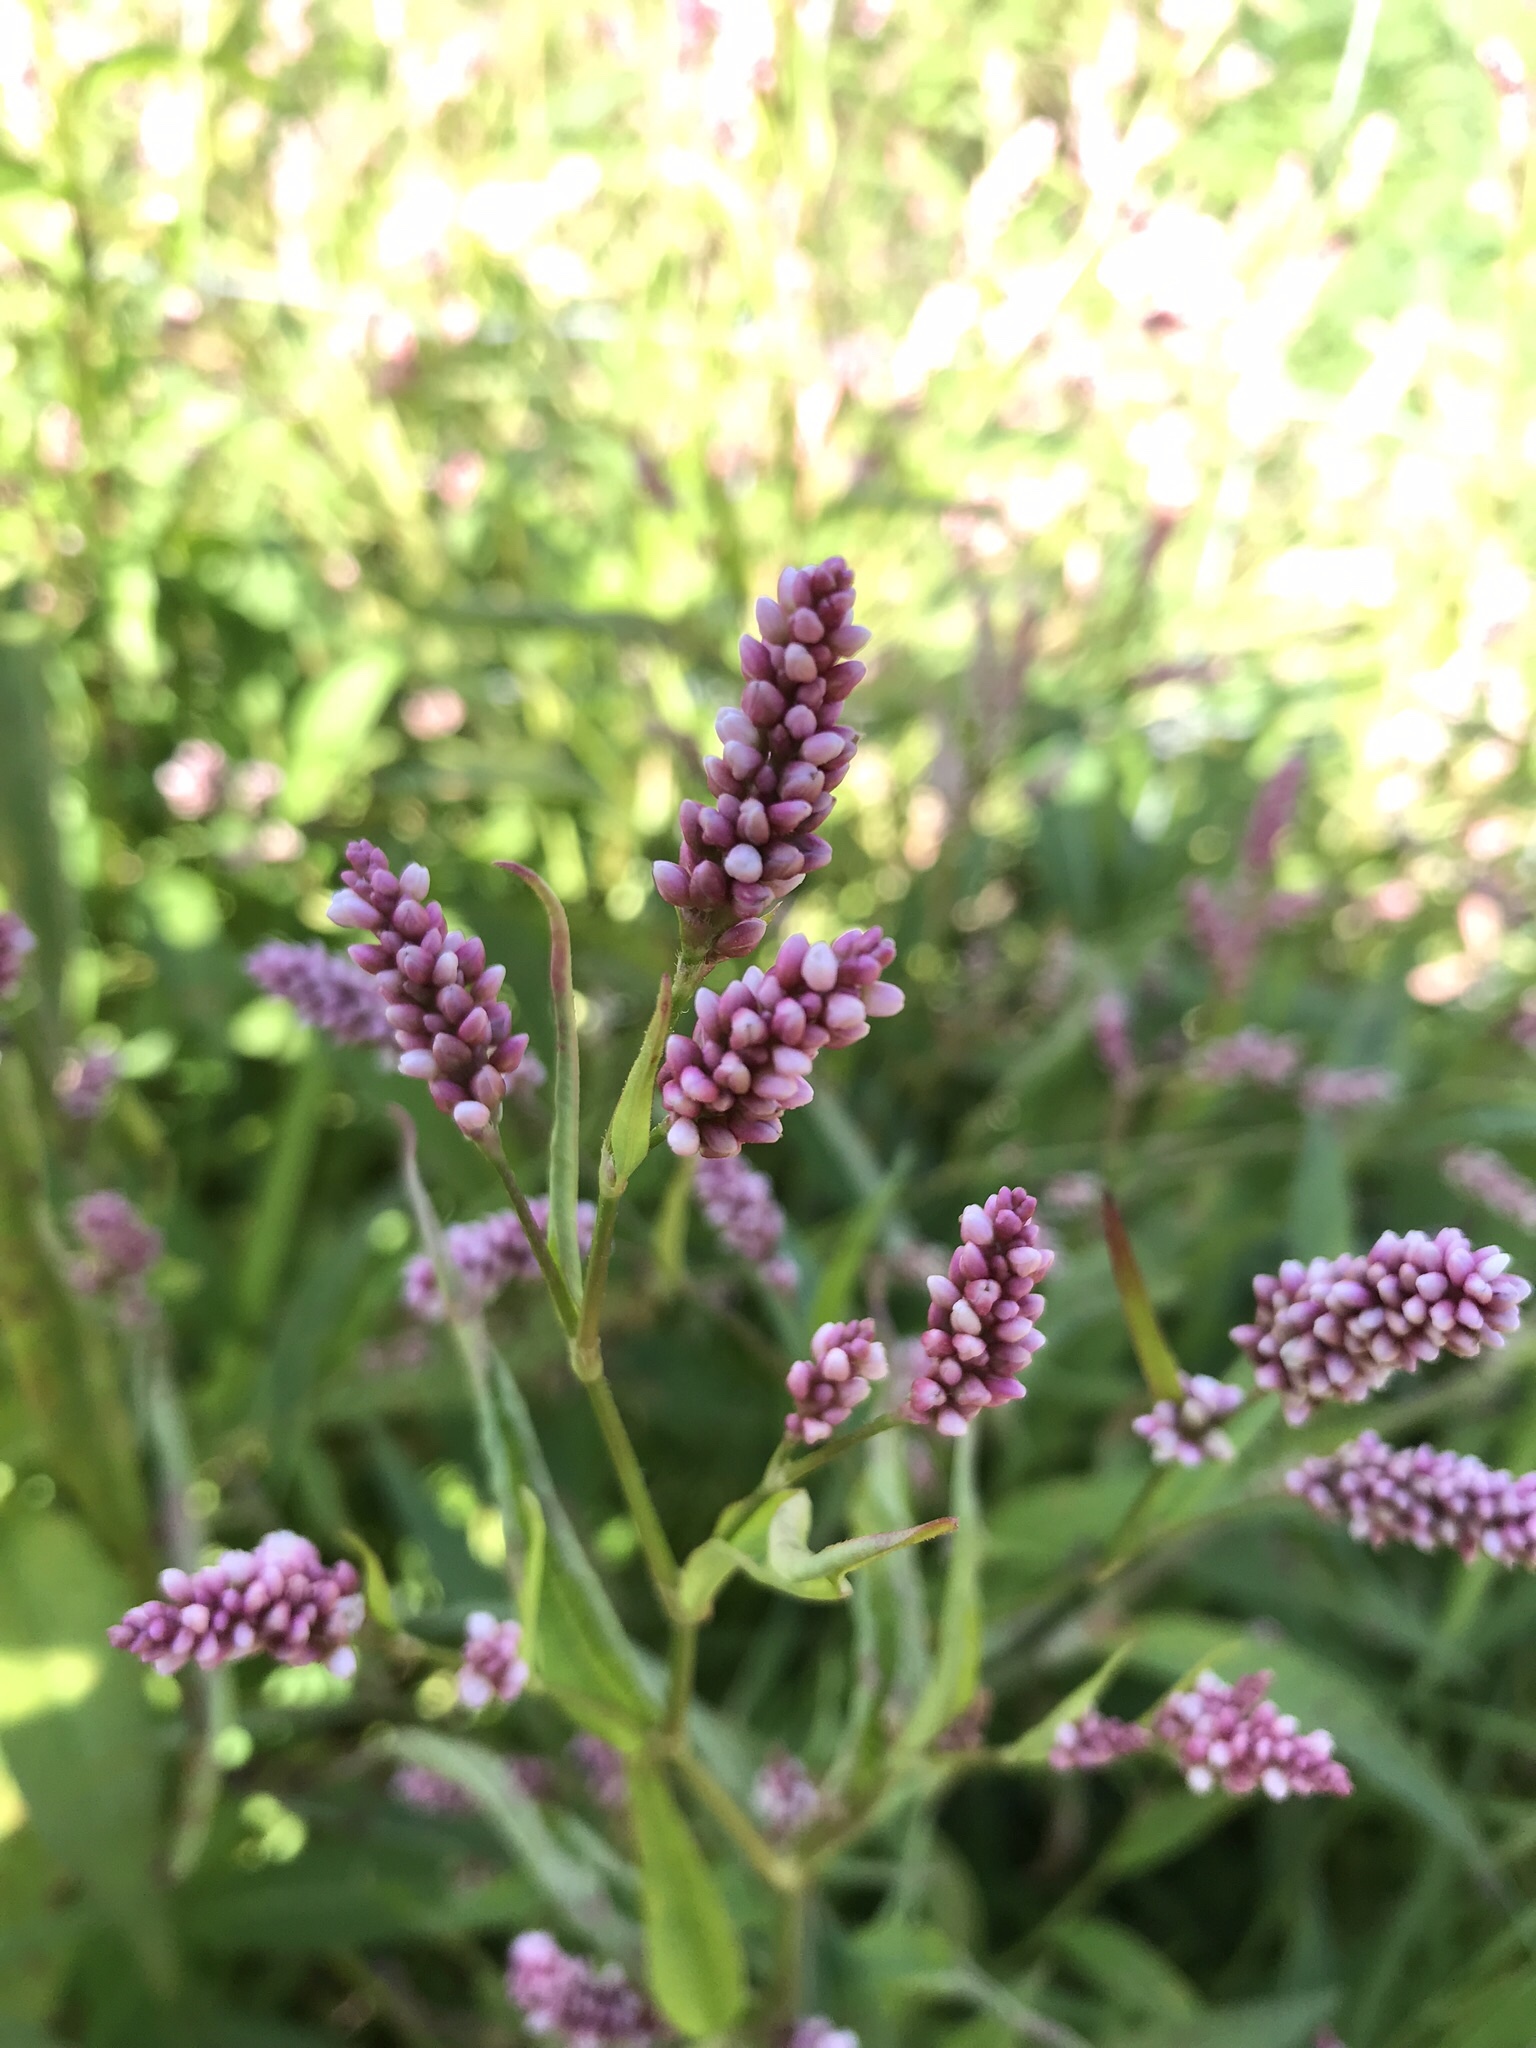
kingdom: Plantae
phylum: Tracheophyta
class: Magnoliopsida
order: Caryophyllales
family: Polygonaceae
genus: Persicaria
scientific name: Persicaria maculosa
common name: Redshank
